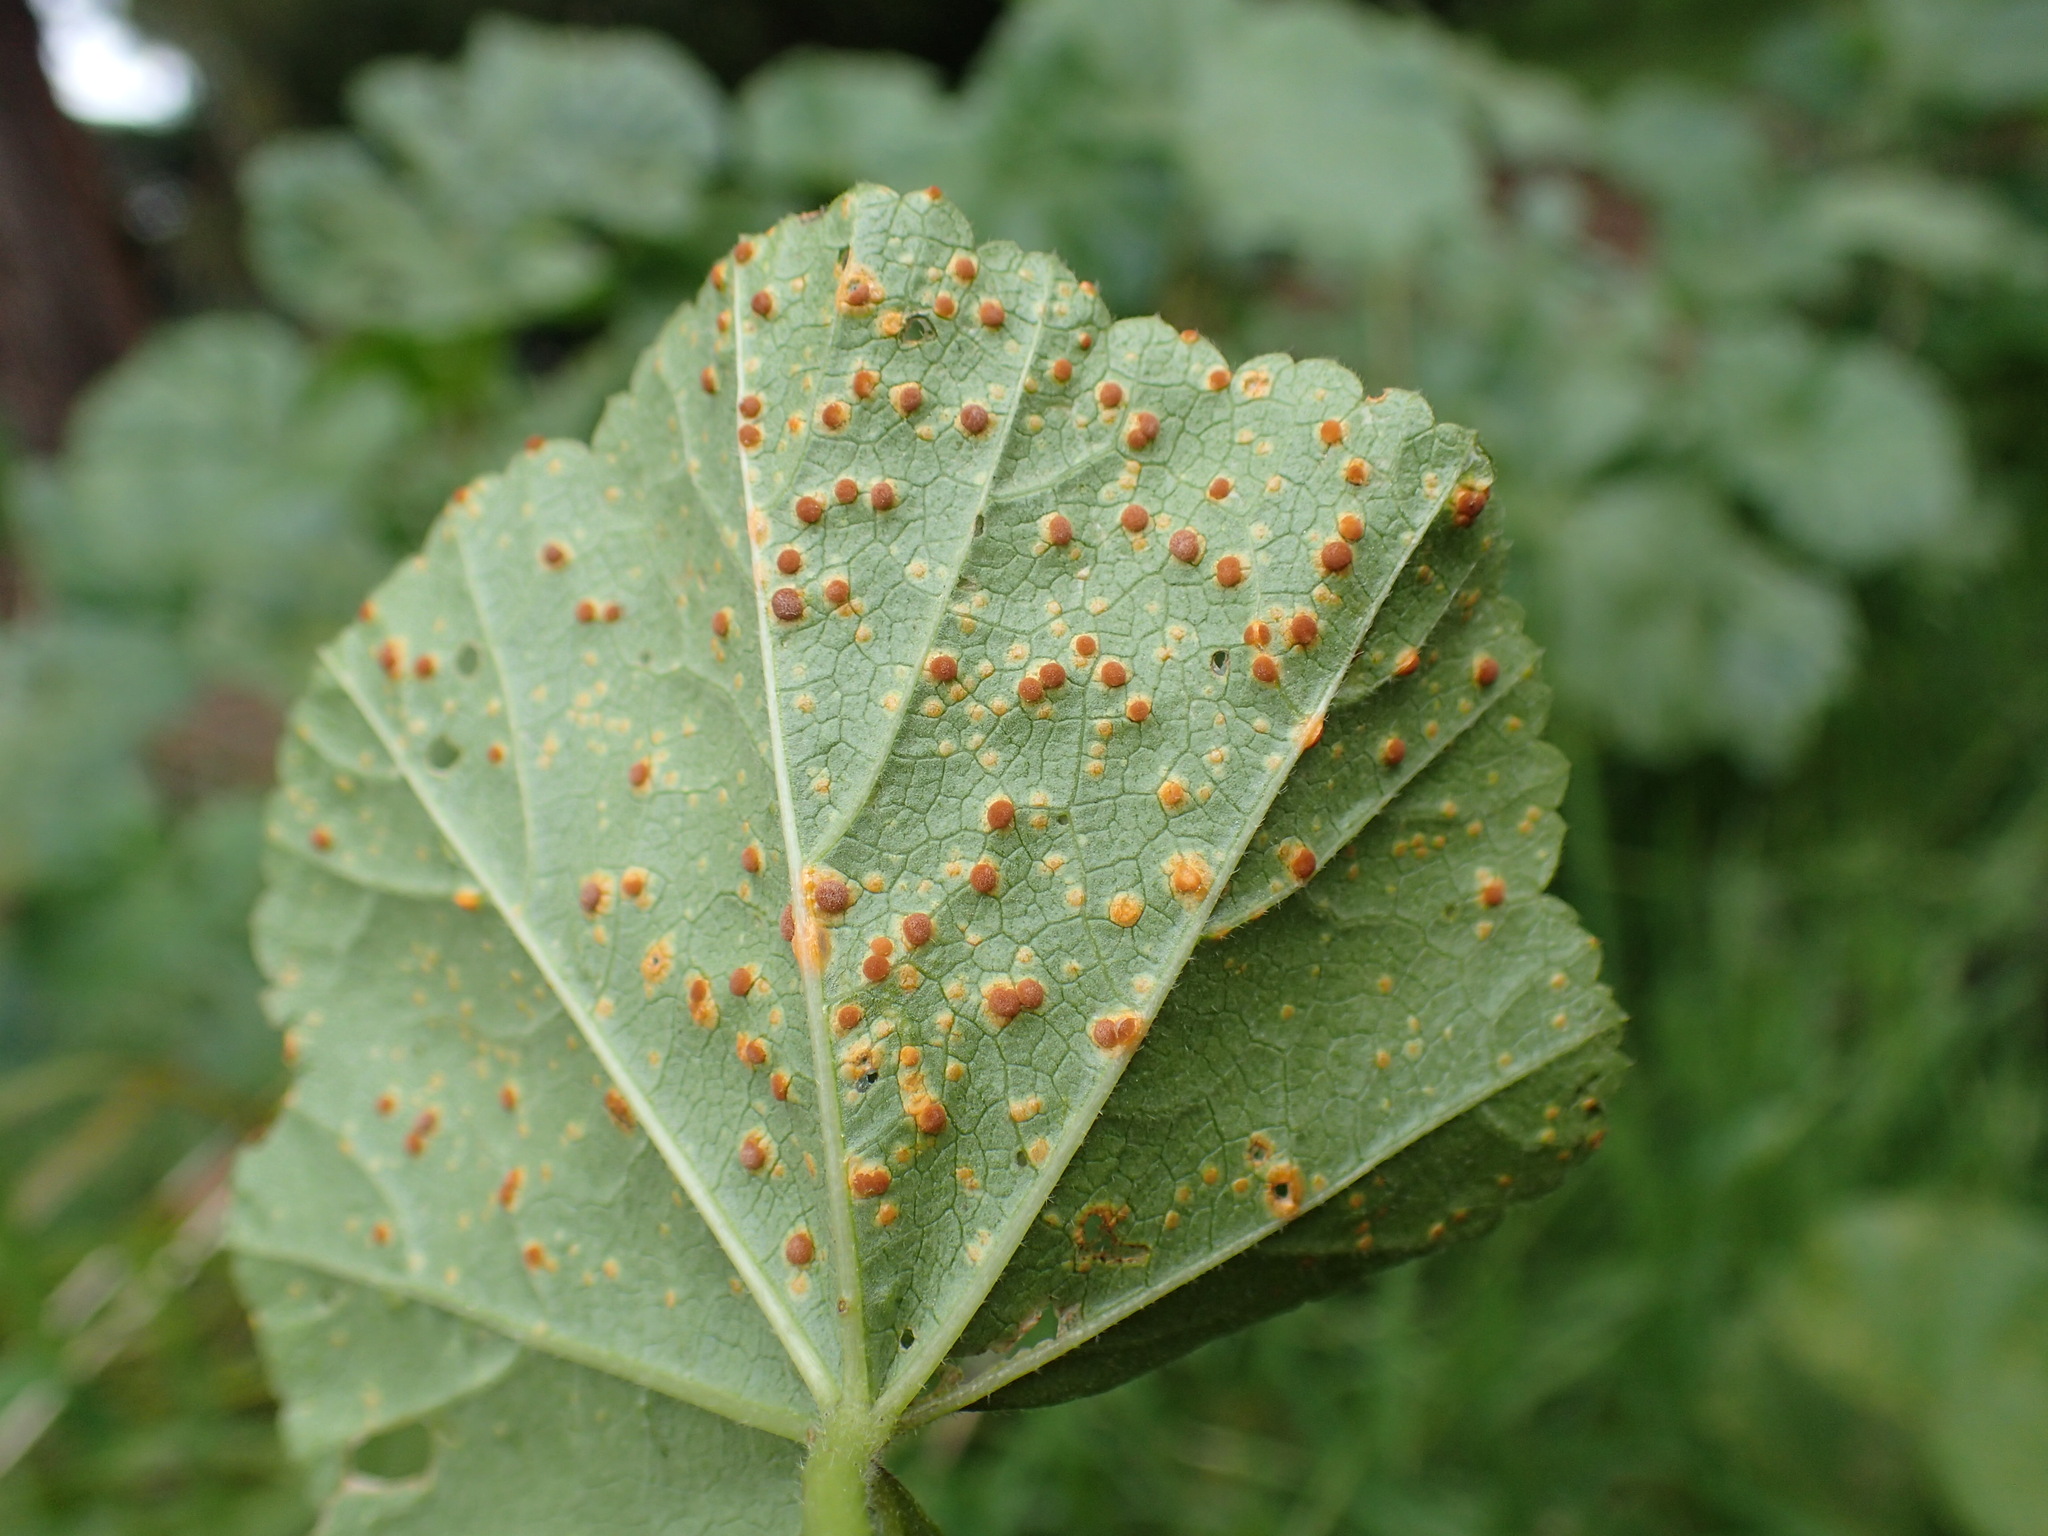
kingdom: Fungi
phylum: Basidiomycota
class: Pucciniomycetes
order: Pucciniales
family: Pucciniaceae
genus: Puccinia
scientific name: Puccinia malvacearum
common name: Hollyhock rust
